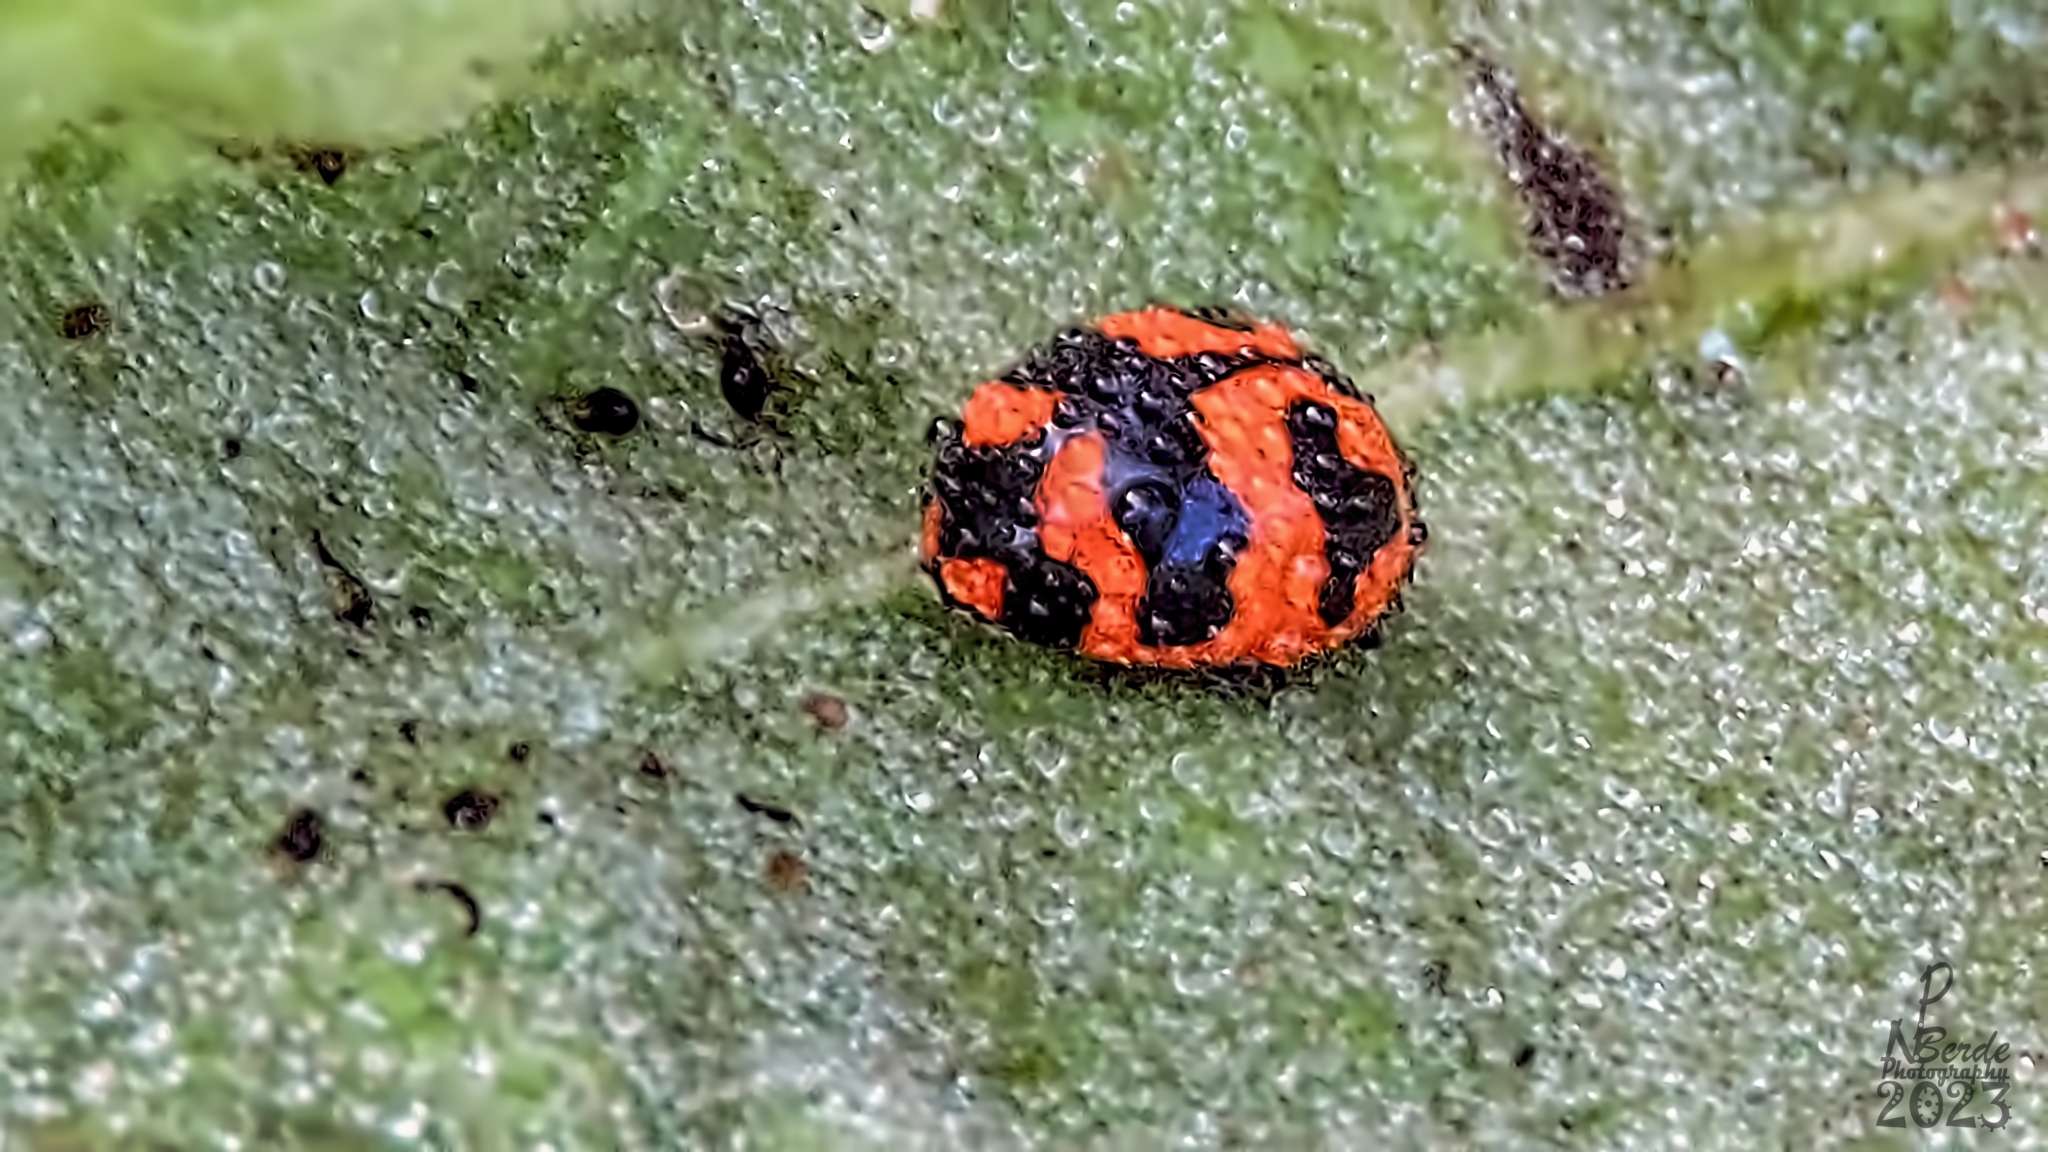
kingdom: Animalia
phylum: Arthropoda
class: Insecta
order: Coleoptera
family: Coccinellidae
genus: Coccinella
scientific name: Coccinella transversalis
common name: Transverse lady beetle
